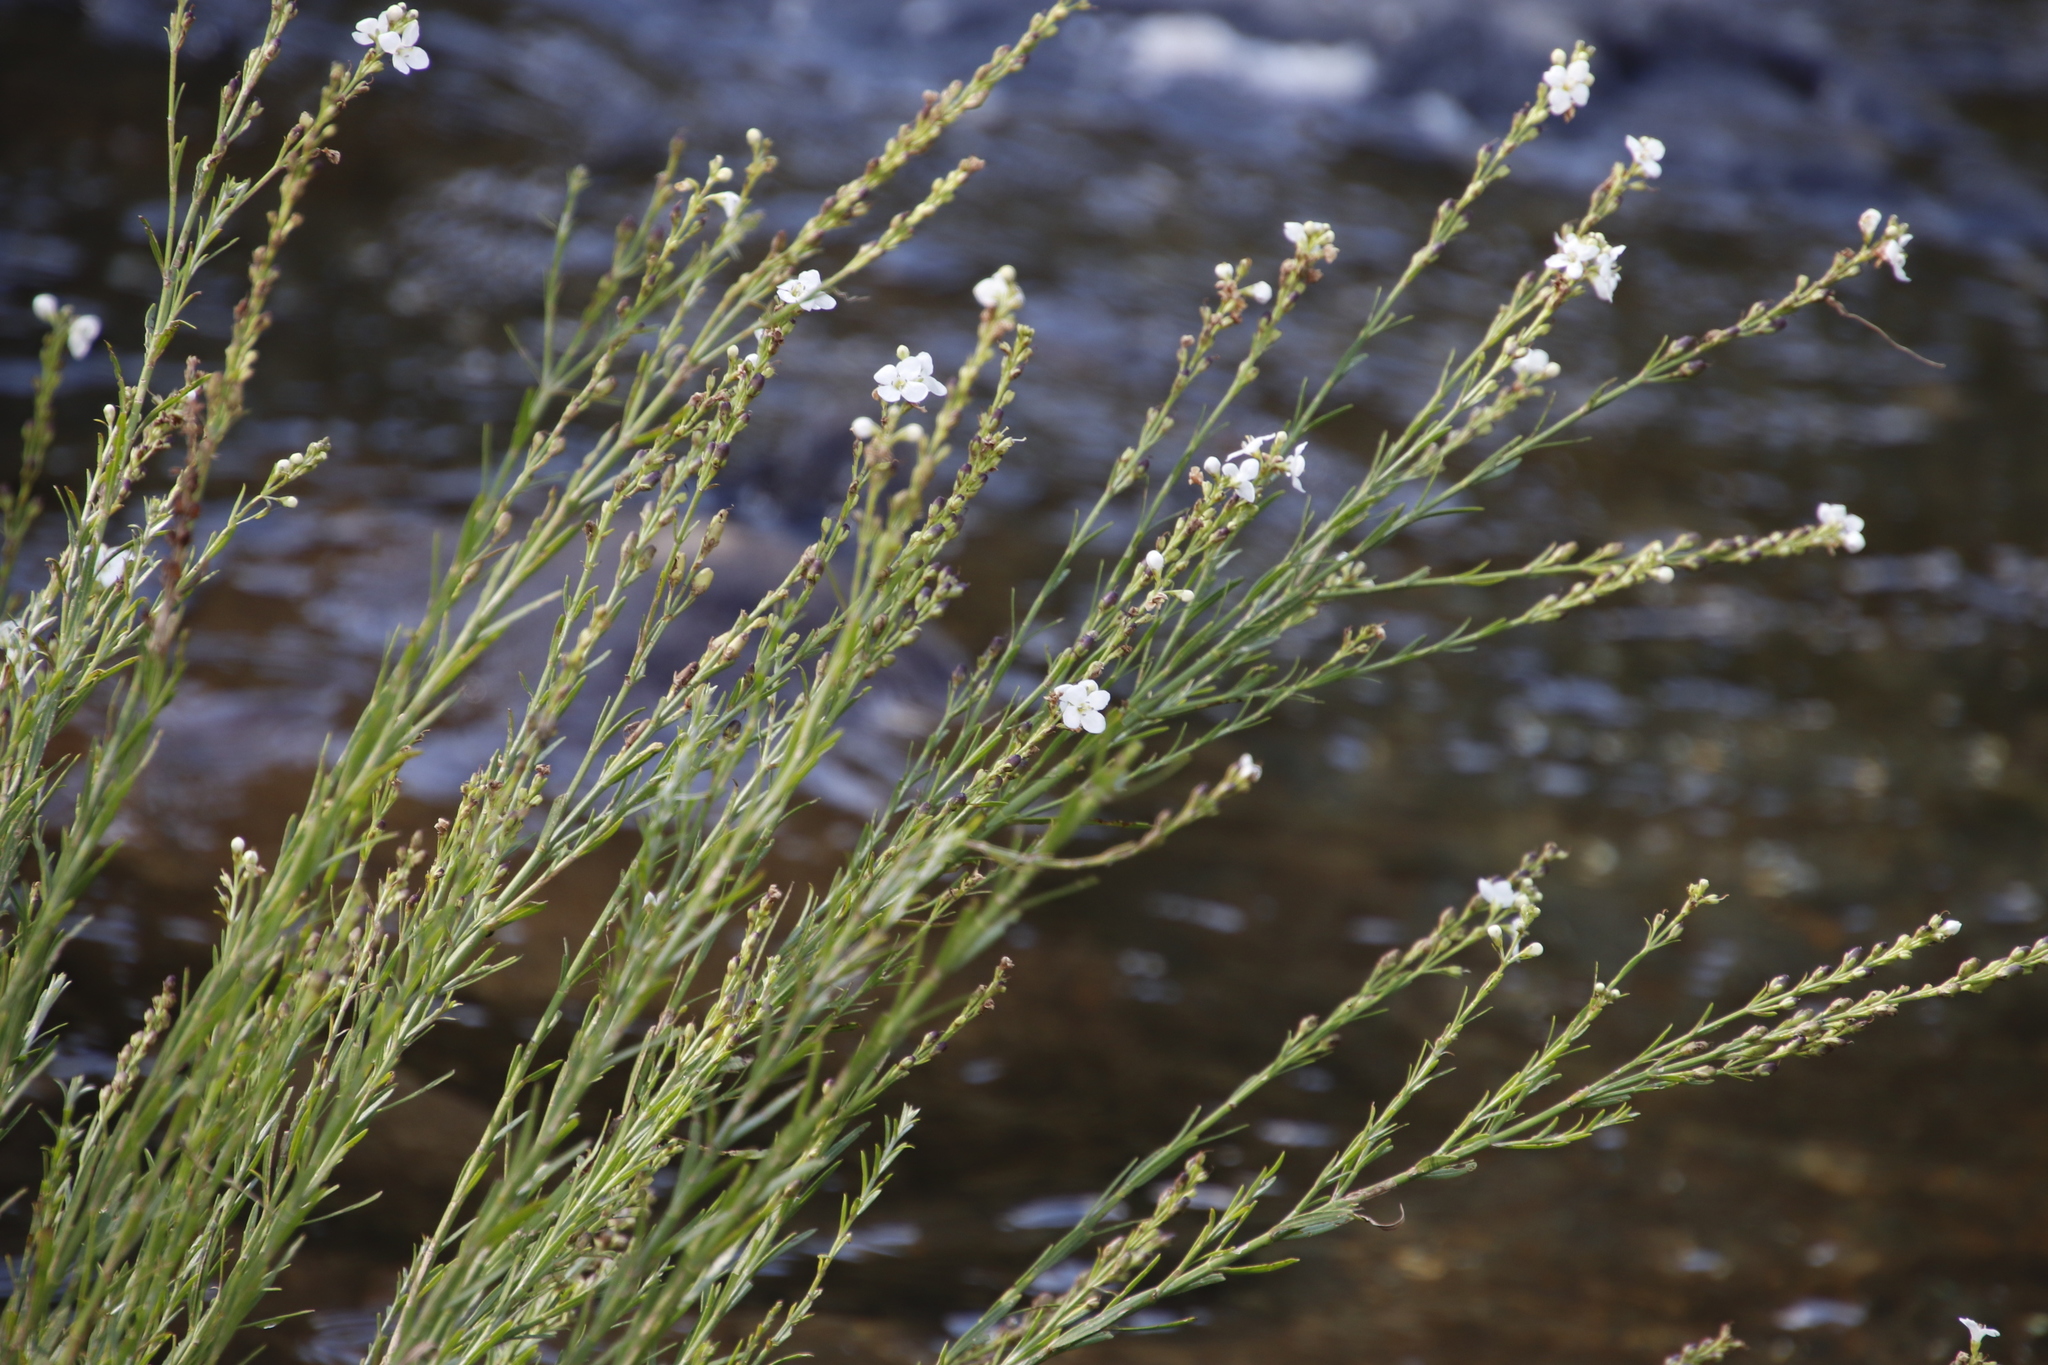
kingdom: Plantae
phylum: Tracheophyta
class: Magnoliopsida
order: Lamiales
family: Scrophulariaceae
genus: Buddleja
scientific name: Buddleja virgata
